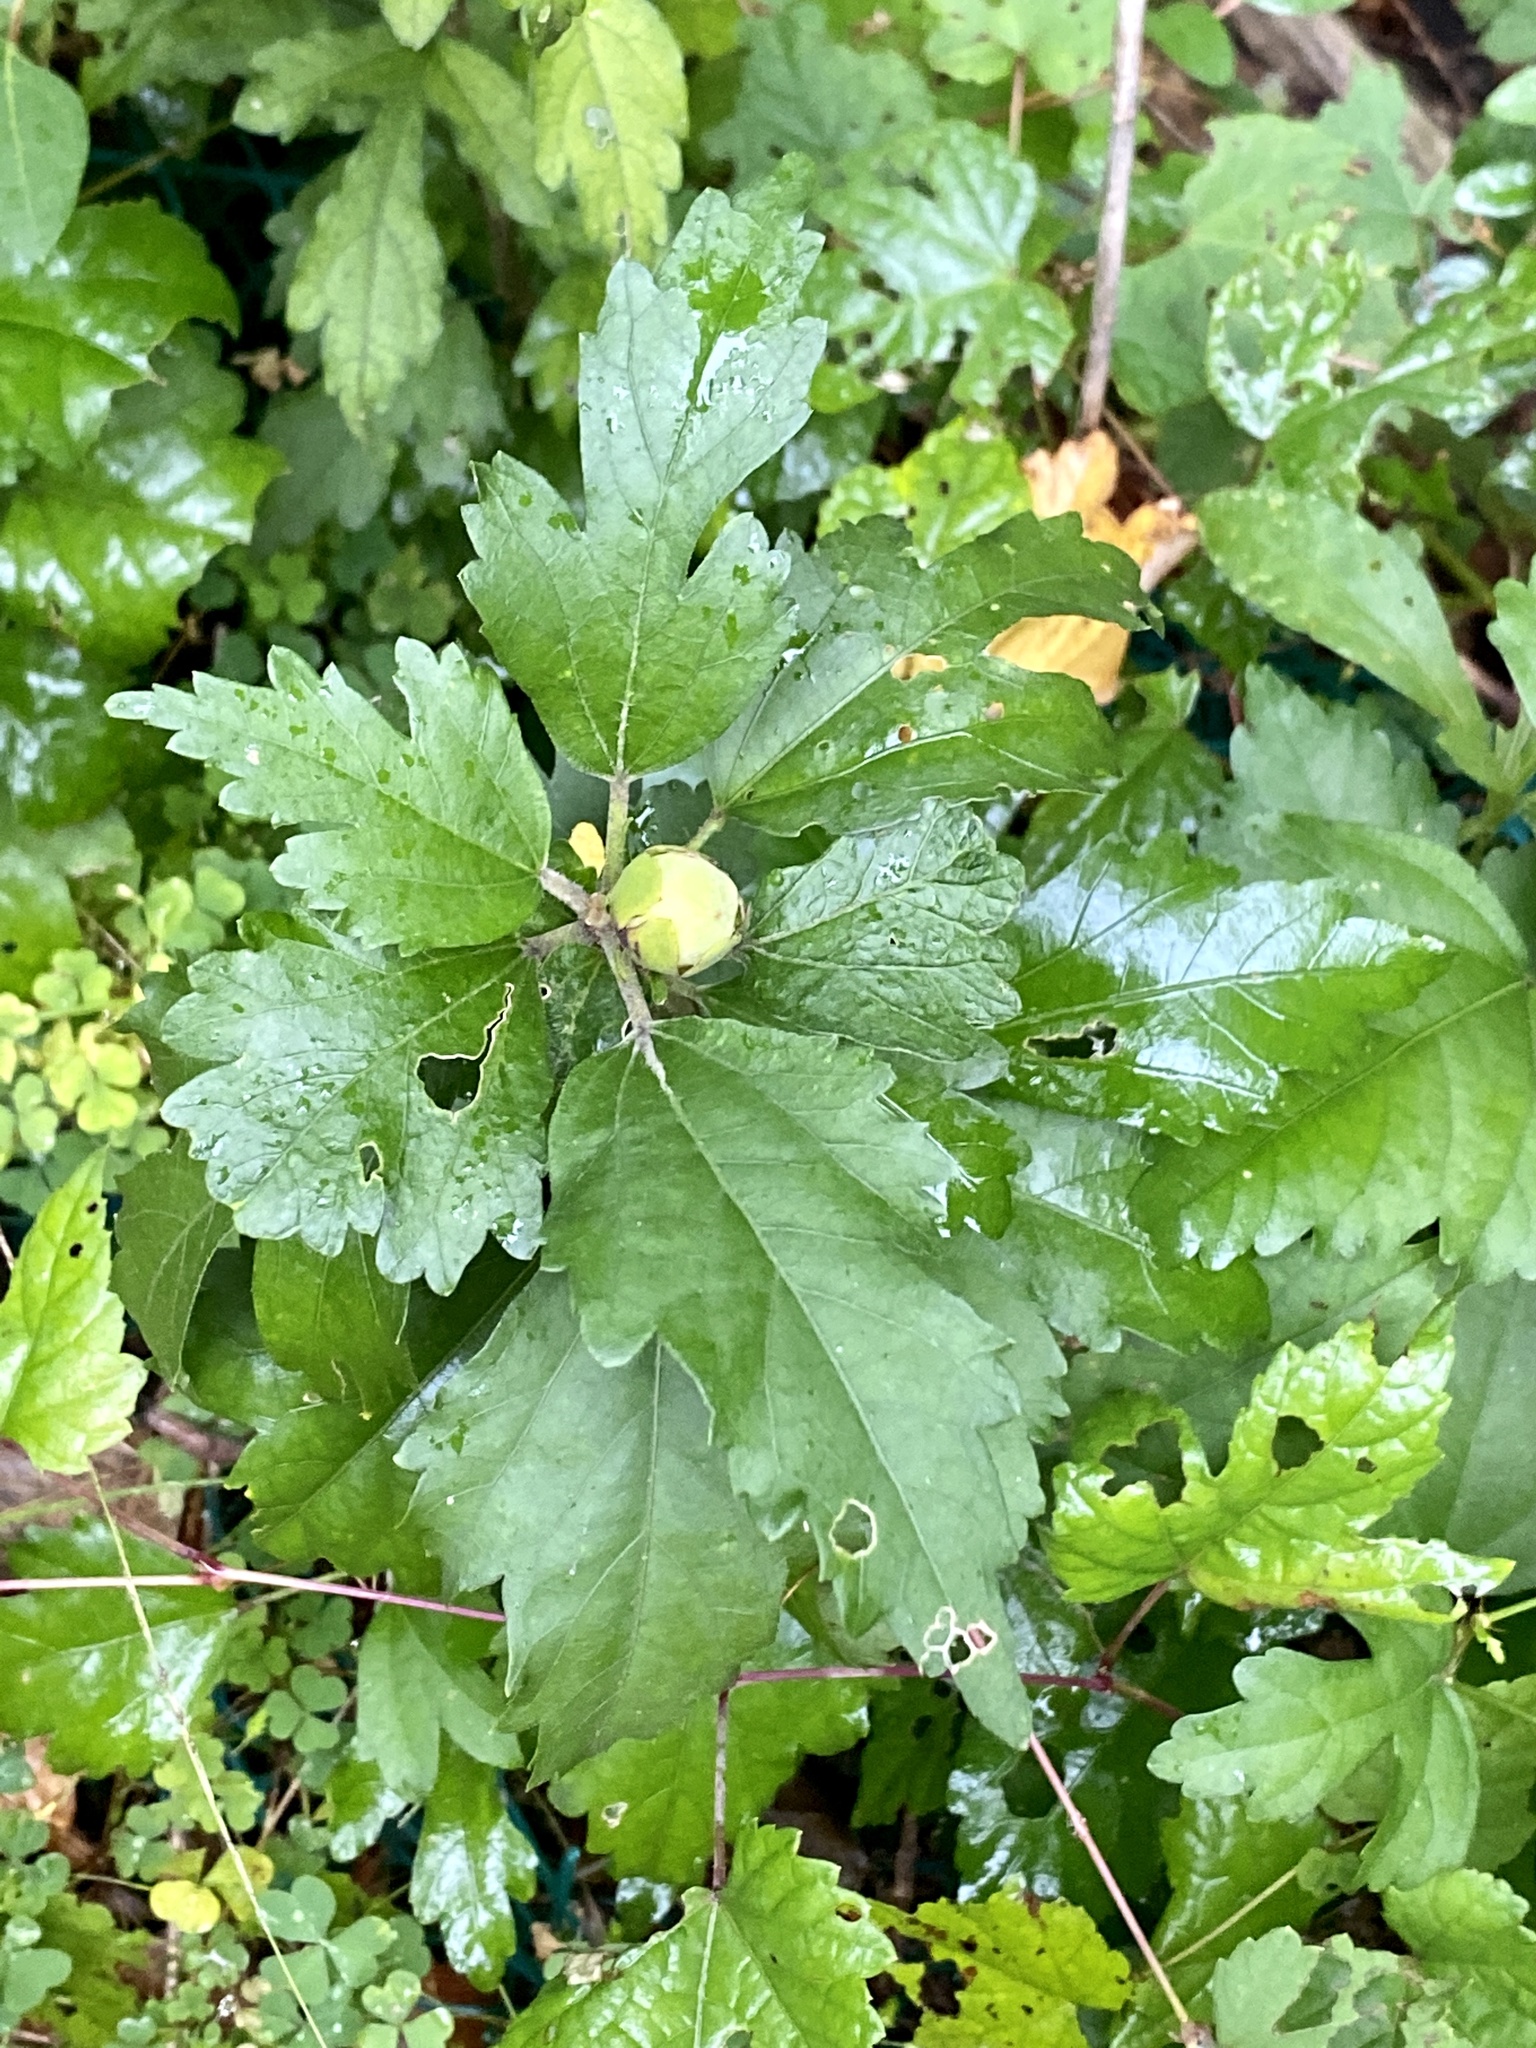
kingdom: Plantae
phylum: Tracheophyta
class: Magnoliopsida
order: Malvales
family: Malvaceae
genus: Hibiscus
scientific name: Hibiscus syriacus
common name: Syrian ketmia
